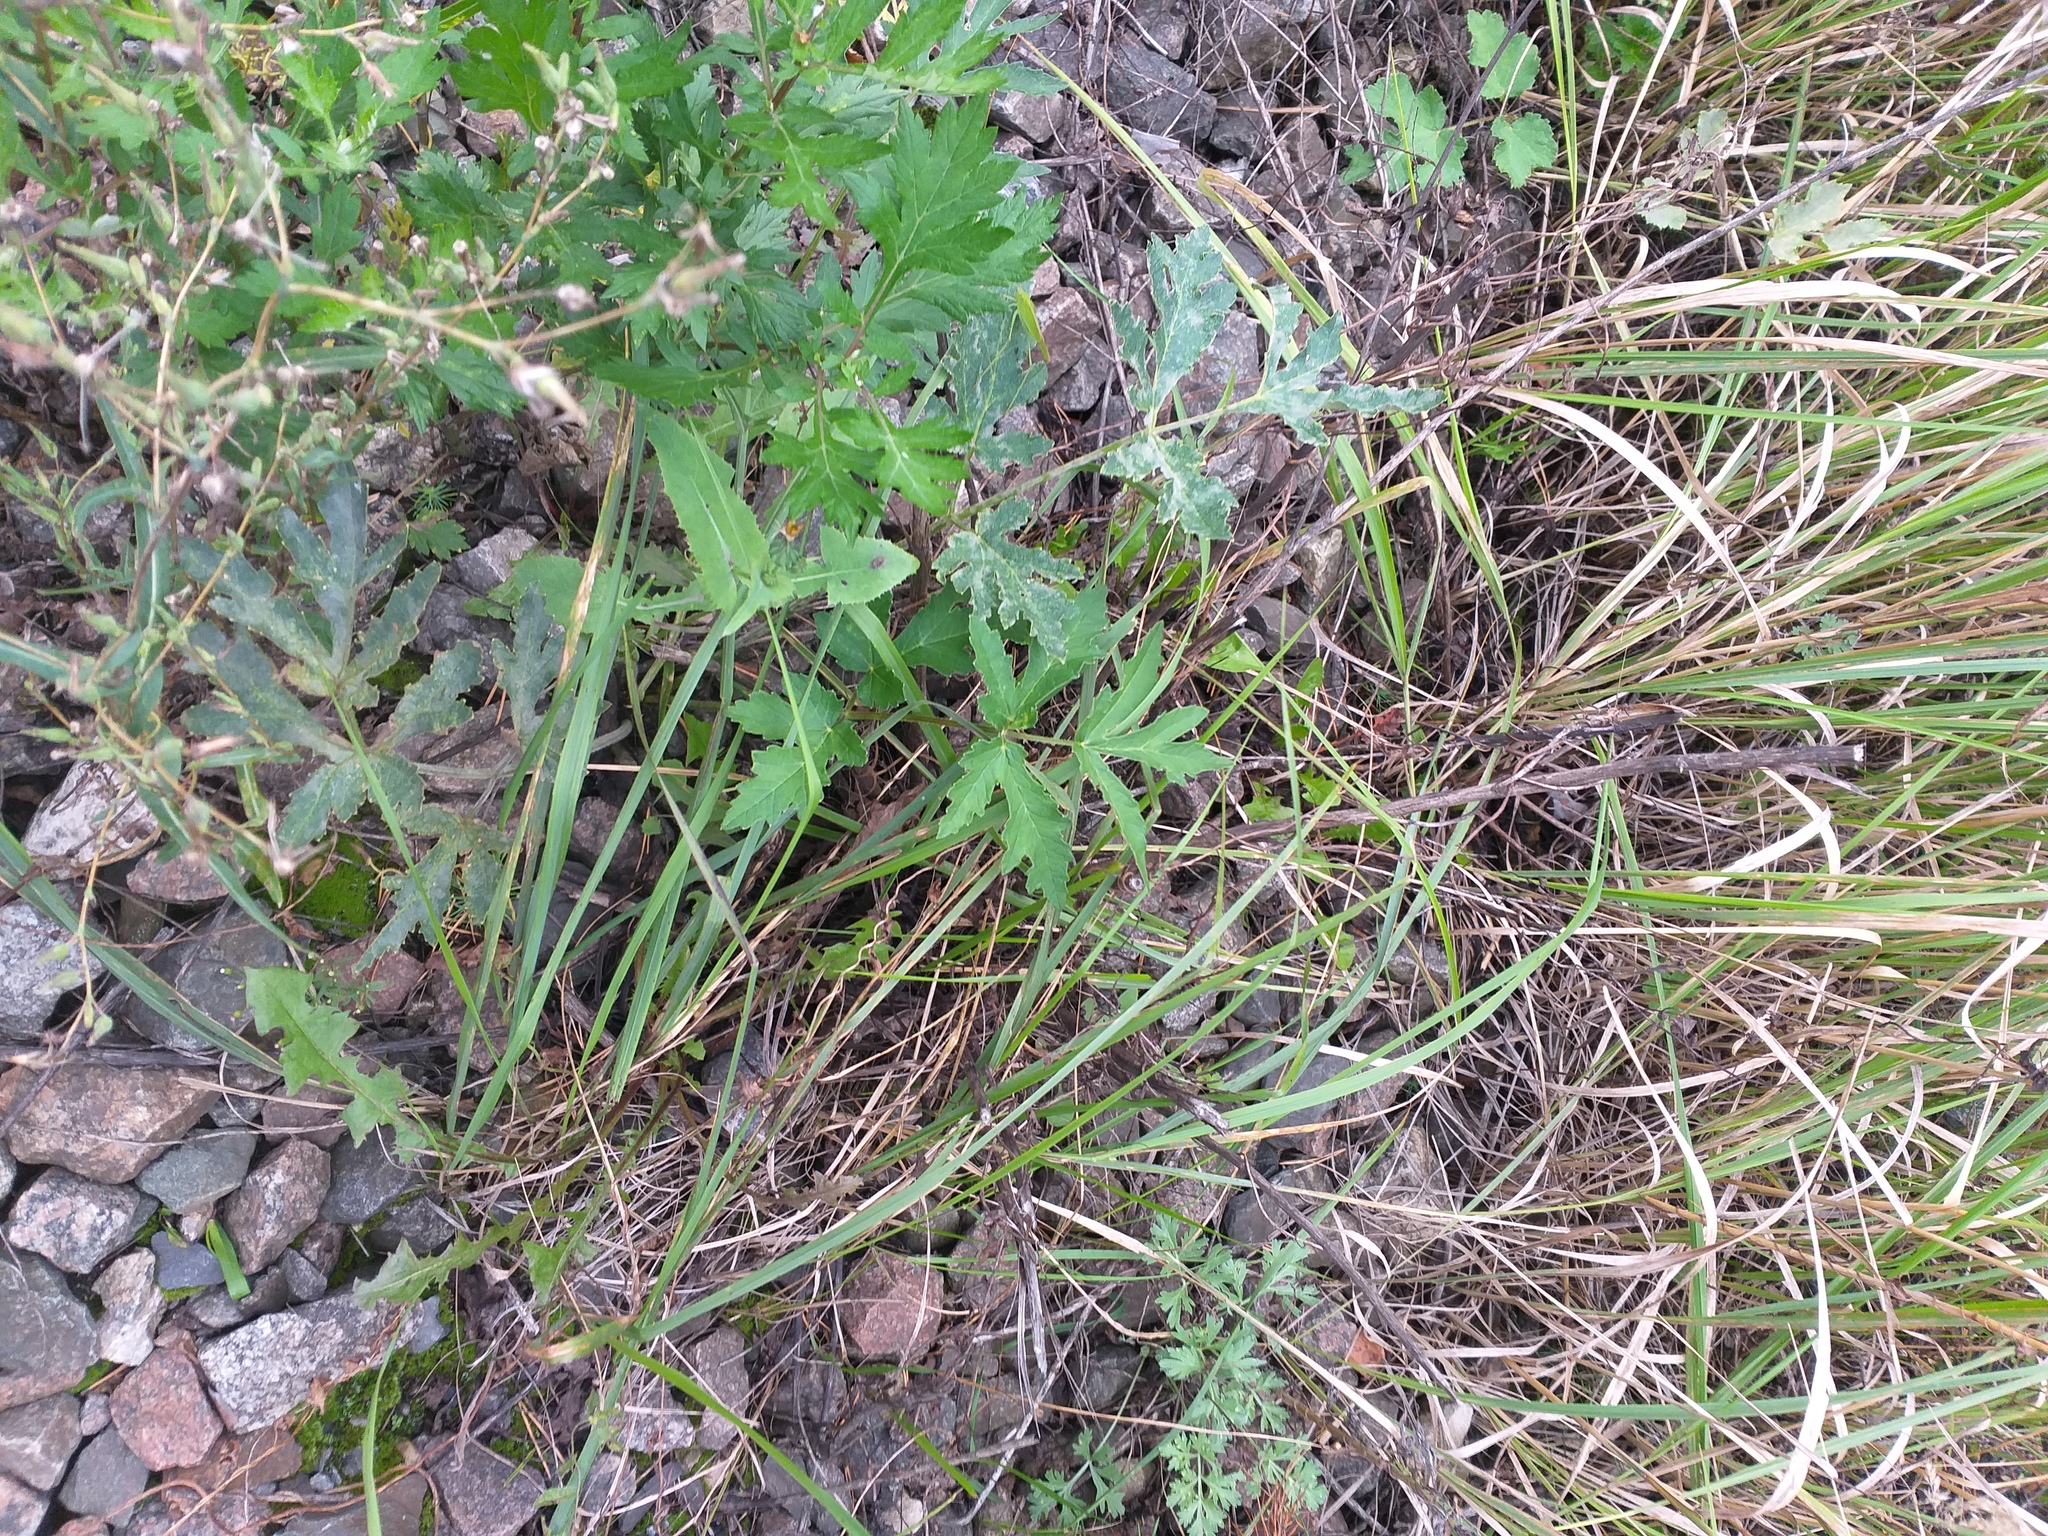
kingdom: Plantae
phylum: Tracheophyta
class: Magnoliopsida
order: Apiales
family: Apiaceae
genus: Heracleum
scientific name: Heracleum sphondylium
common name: Hogweed
